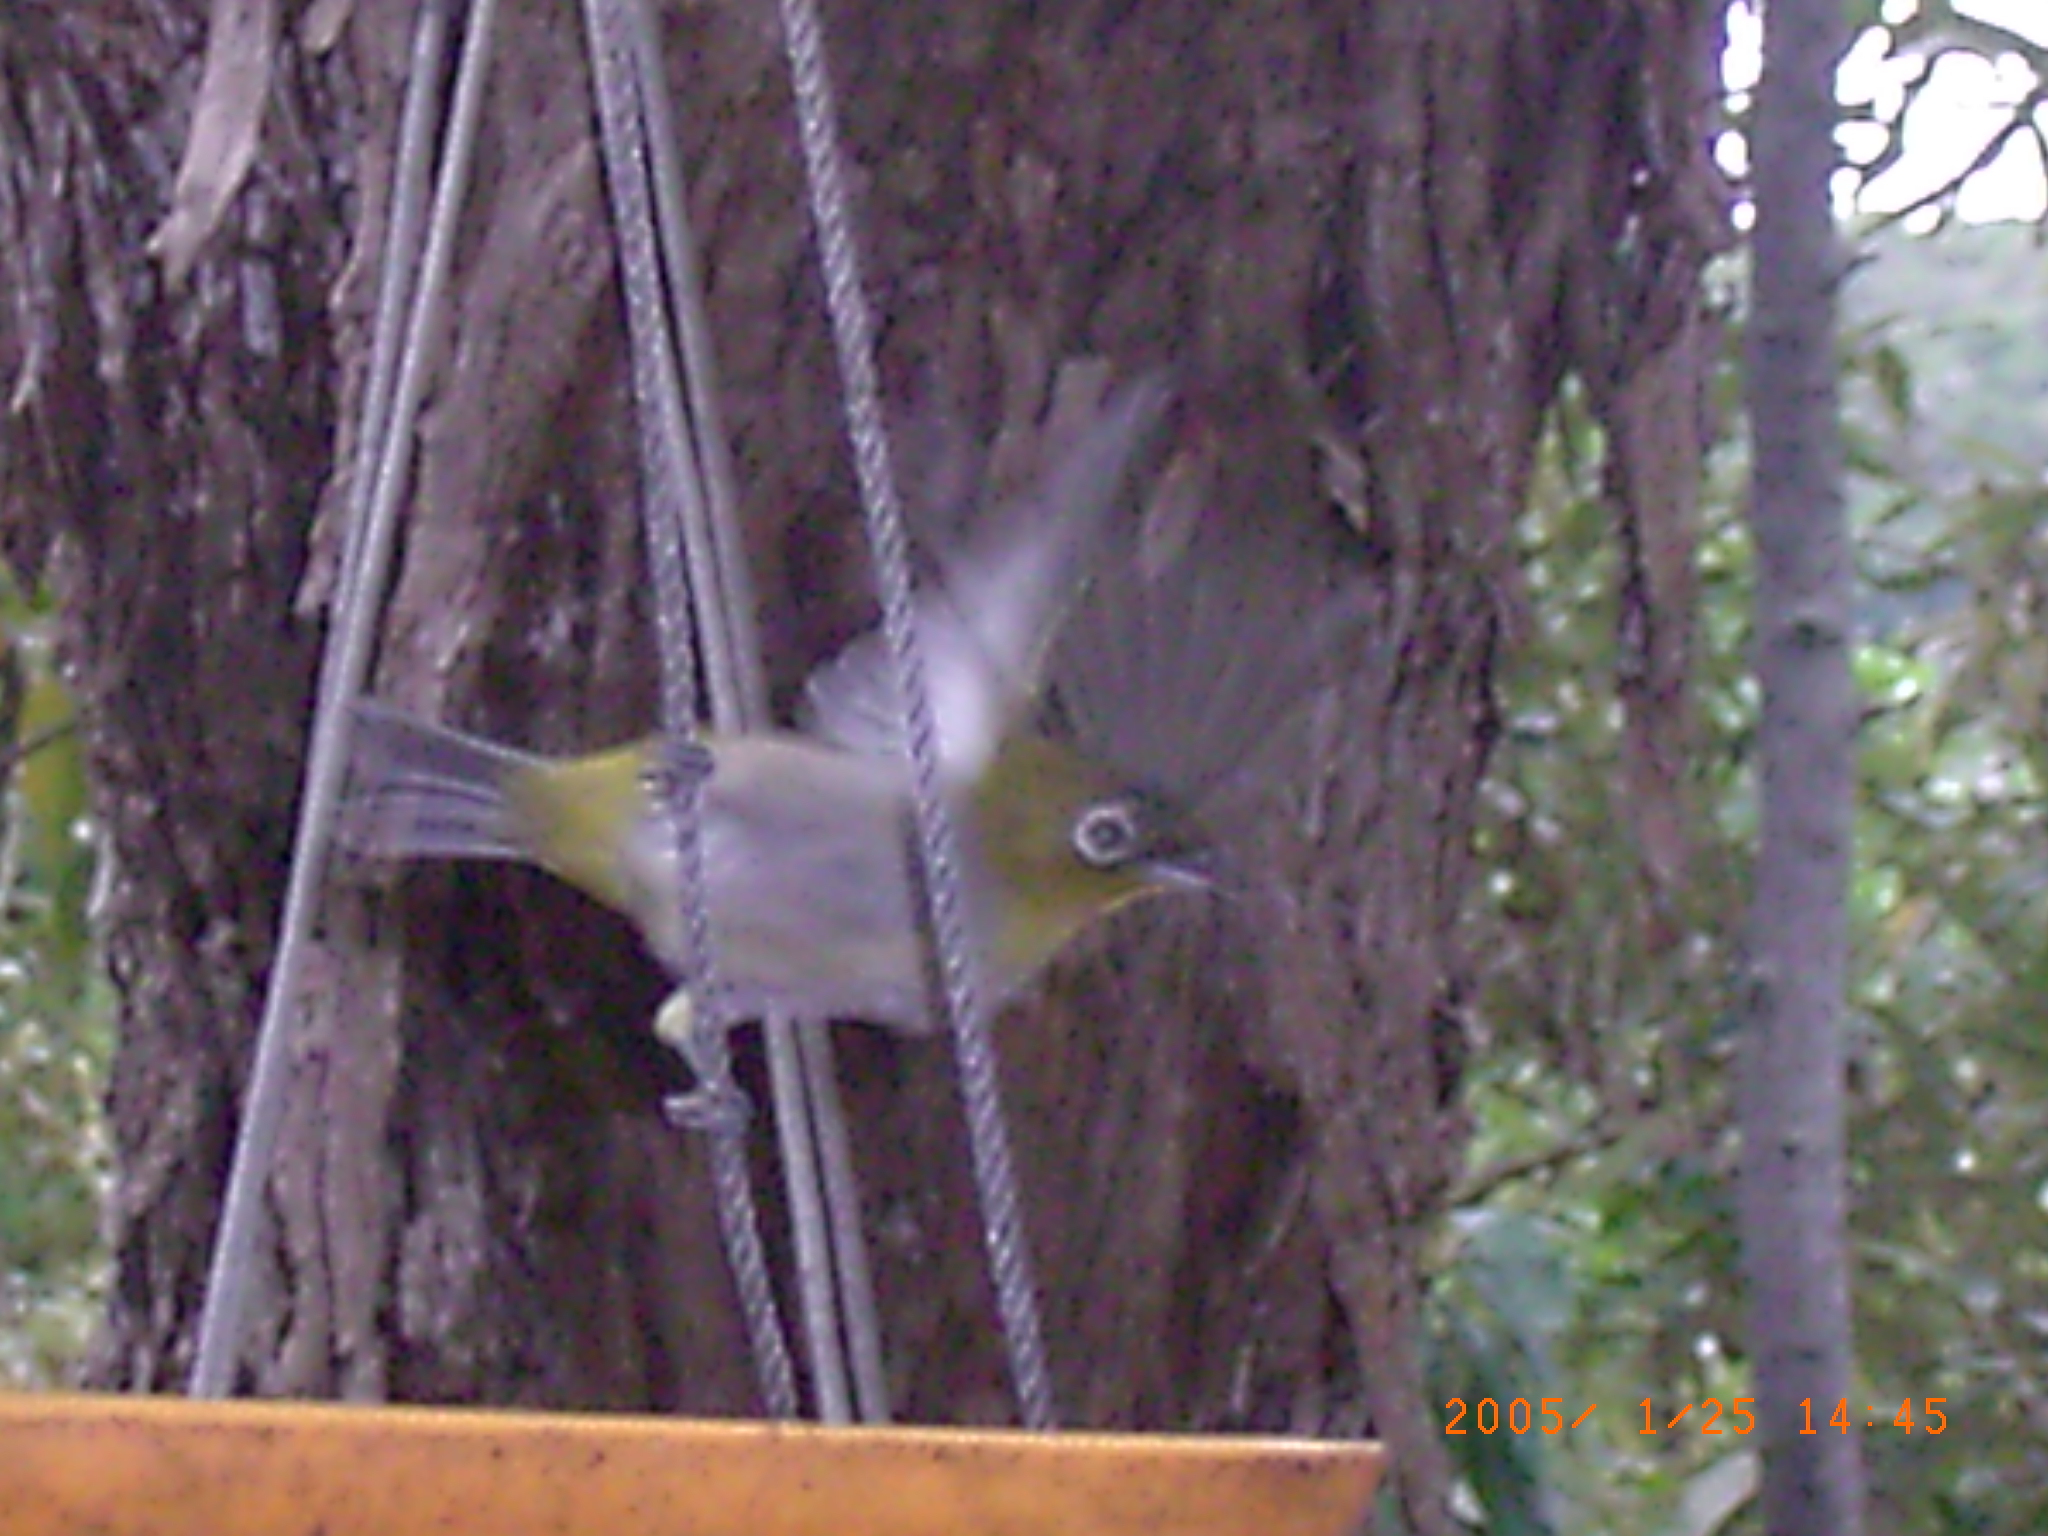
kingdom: Animalia
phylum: Chordata
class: Aves
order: Passeriformes
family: Zosteropidae
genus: Zosterops
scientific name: Zosterops virens
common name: Cape white-eye
